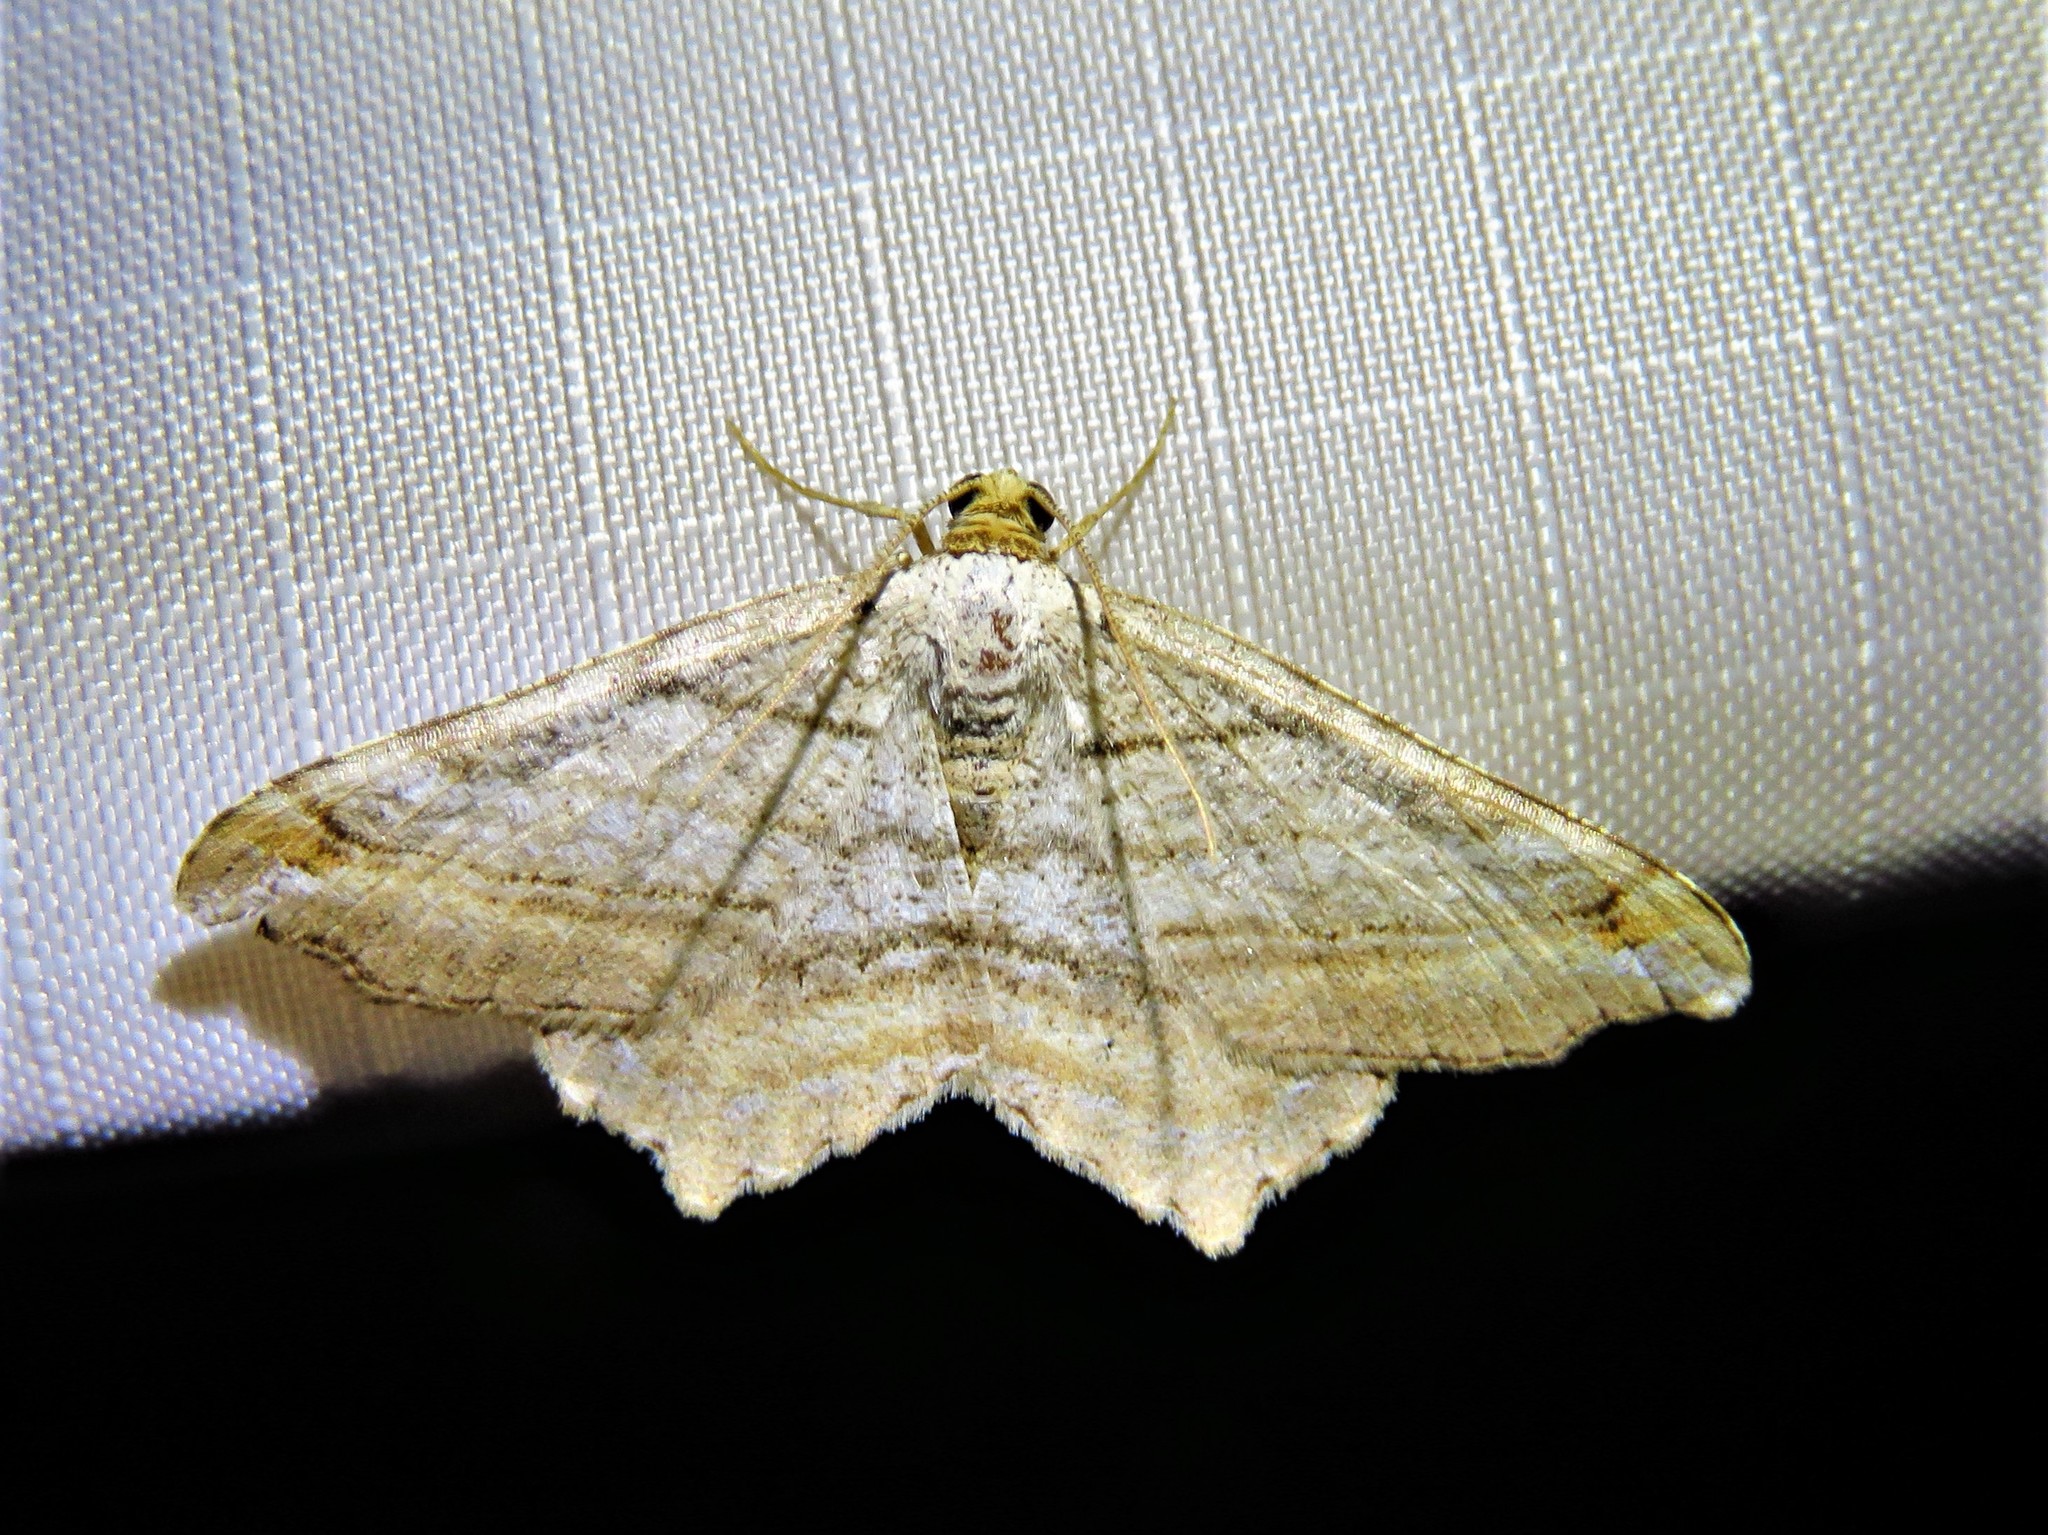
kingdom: Animalia
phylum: Arthropoda
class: Insecta
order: Lepidoptera
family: Geometridae
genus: Macaria
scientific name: Macaria multilineata
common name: Many-lined angle
